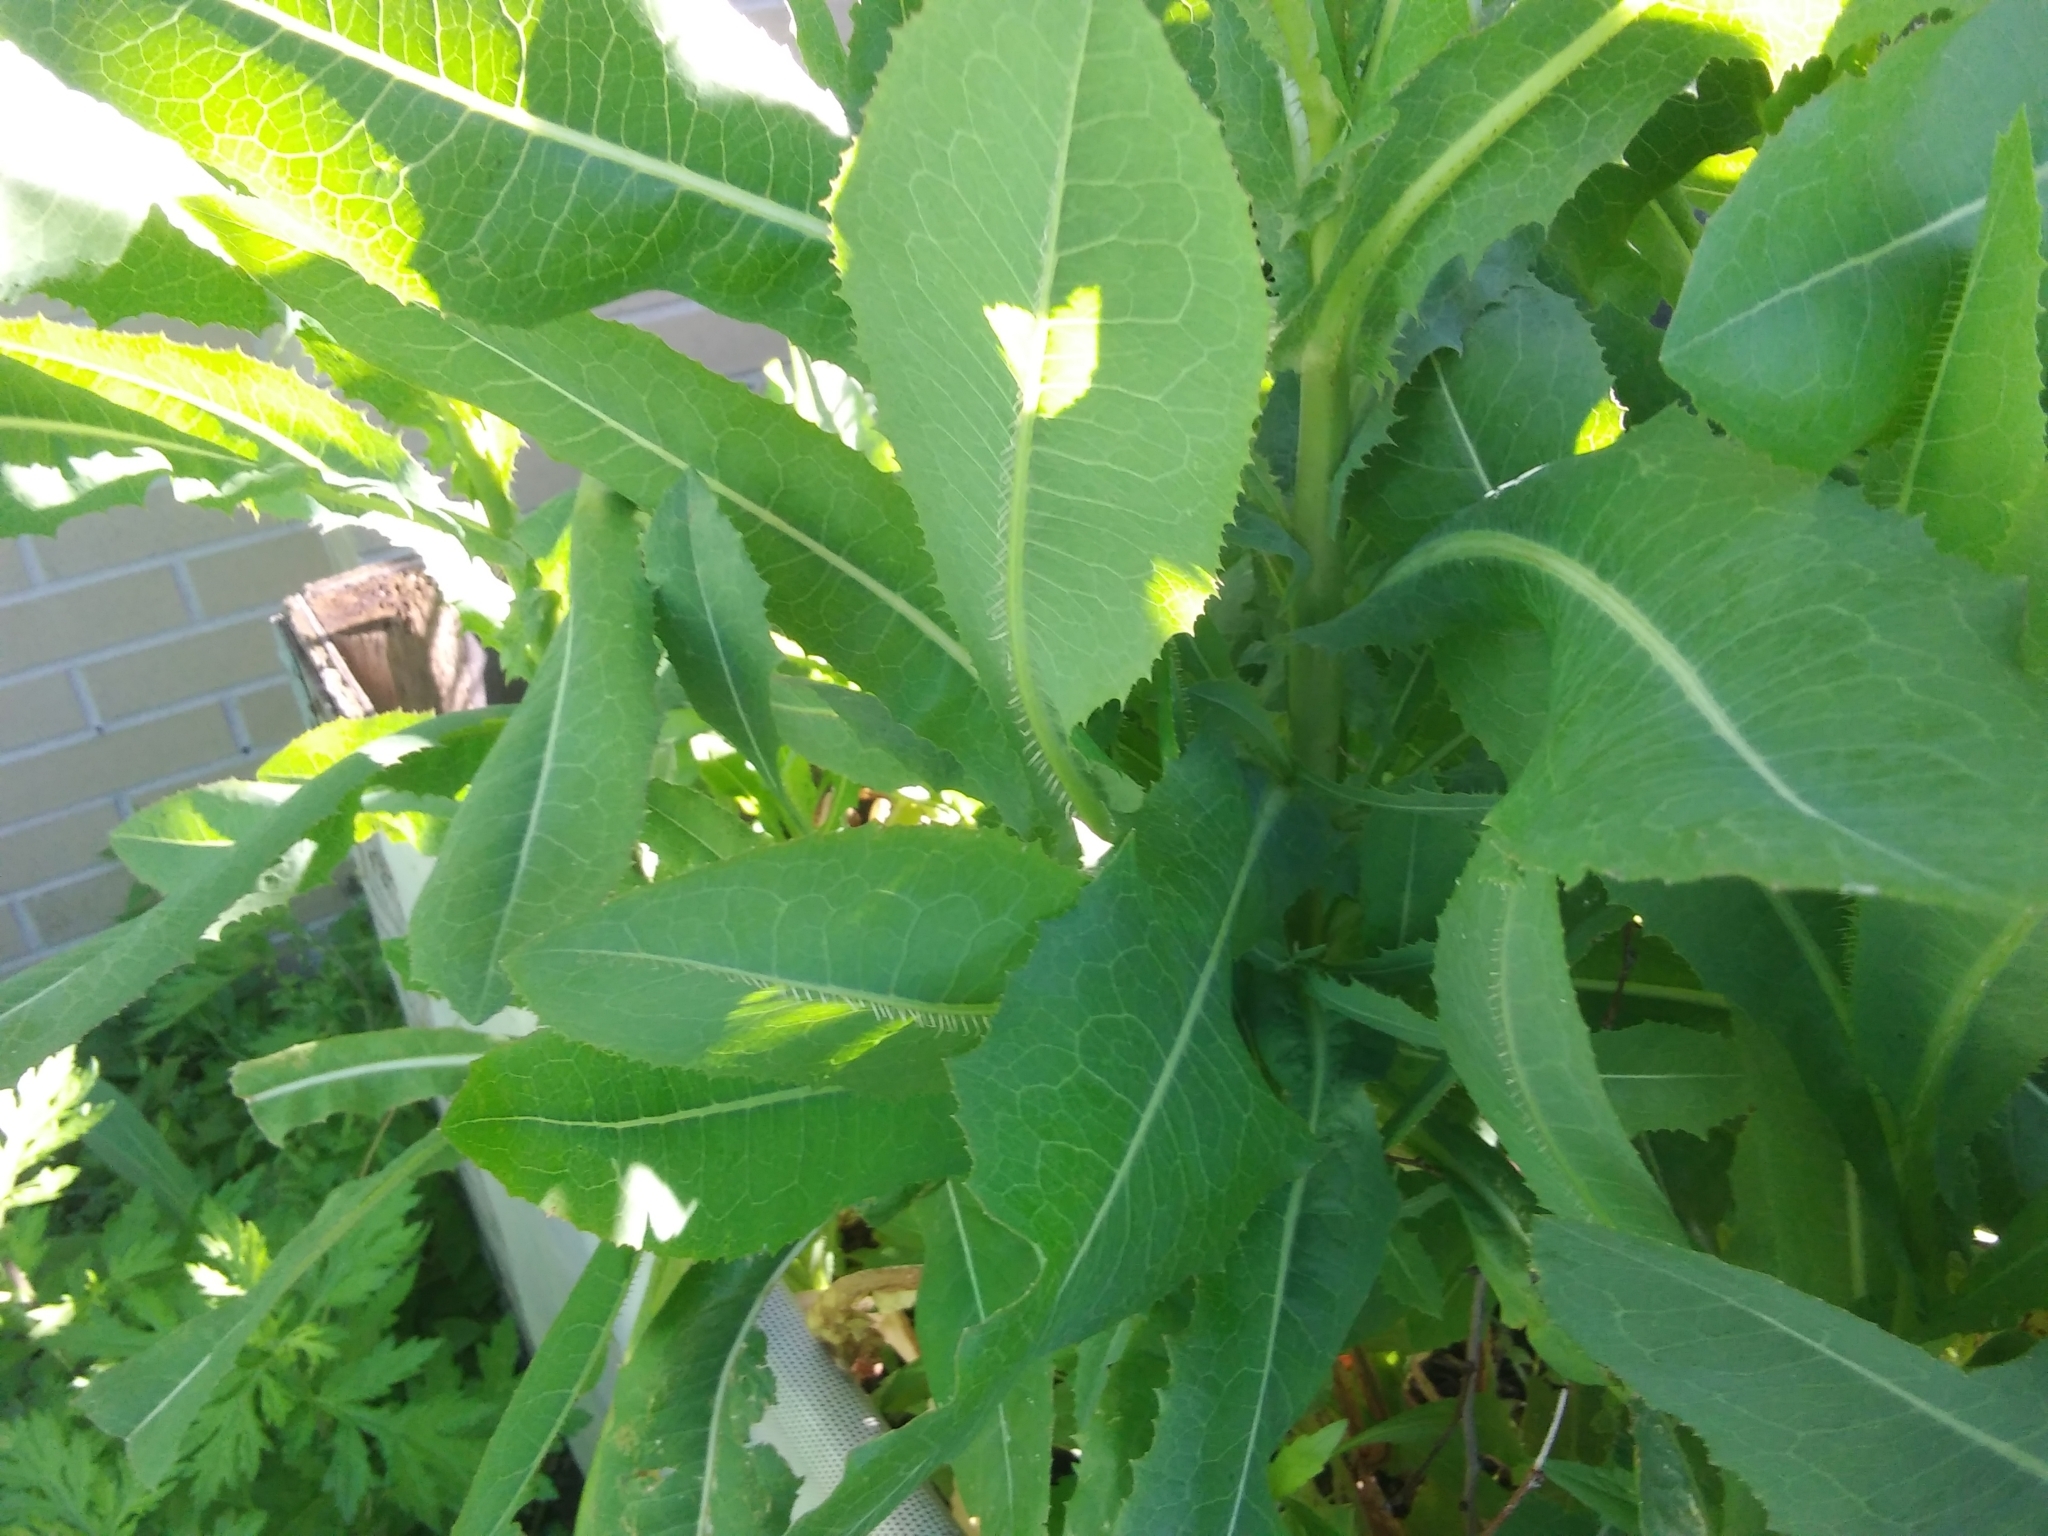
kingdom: Plantae
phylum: Tracheophyta
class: Magnoliopsida
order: Asterales
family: Asteraceae
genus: Lactuca
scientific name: Lactuca serriola
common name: Prickly lettuce
